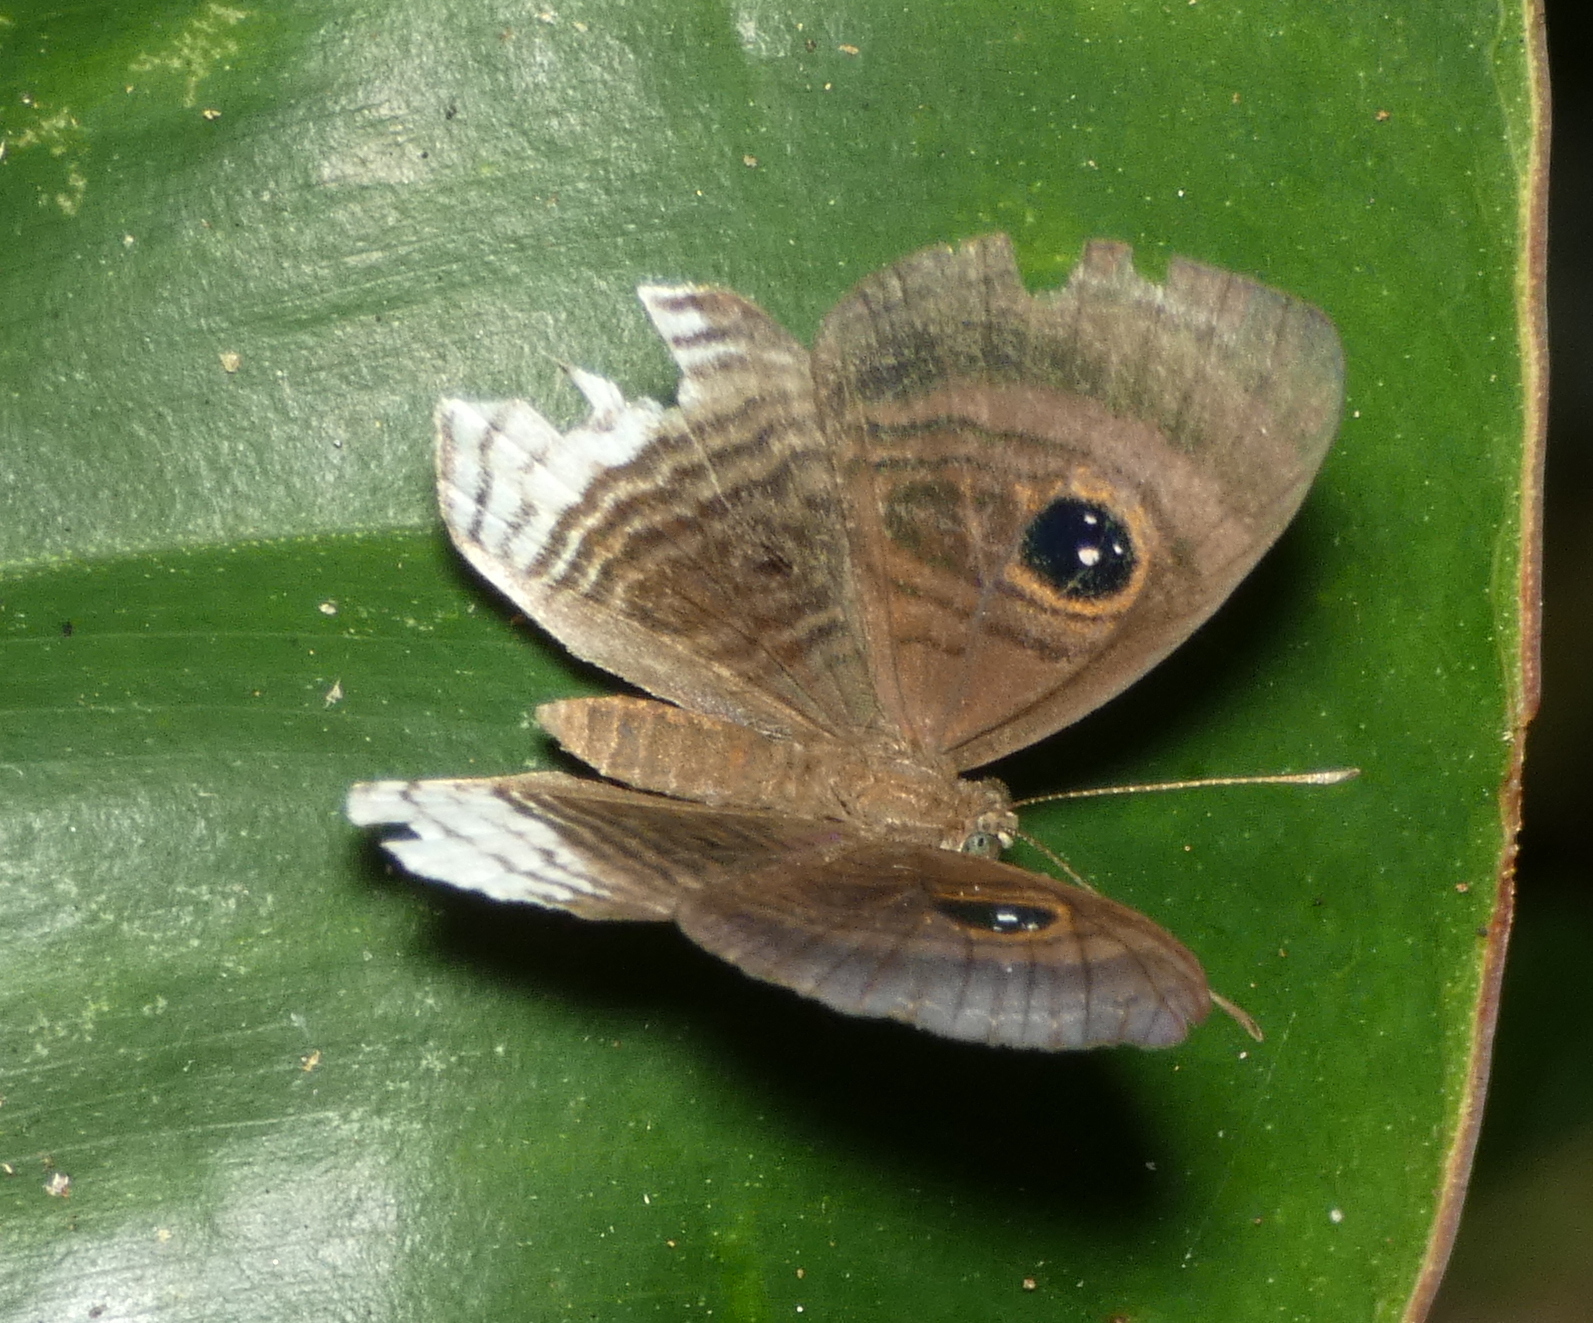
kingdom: Animalia
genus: Mesosemia
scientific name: Mesosemia nyctea
